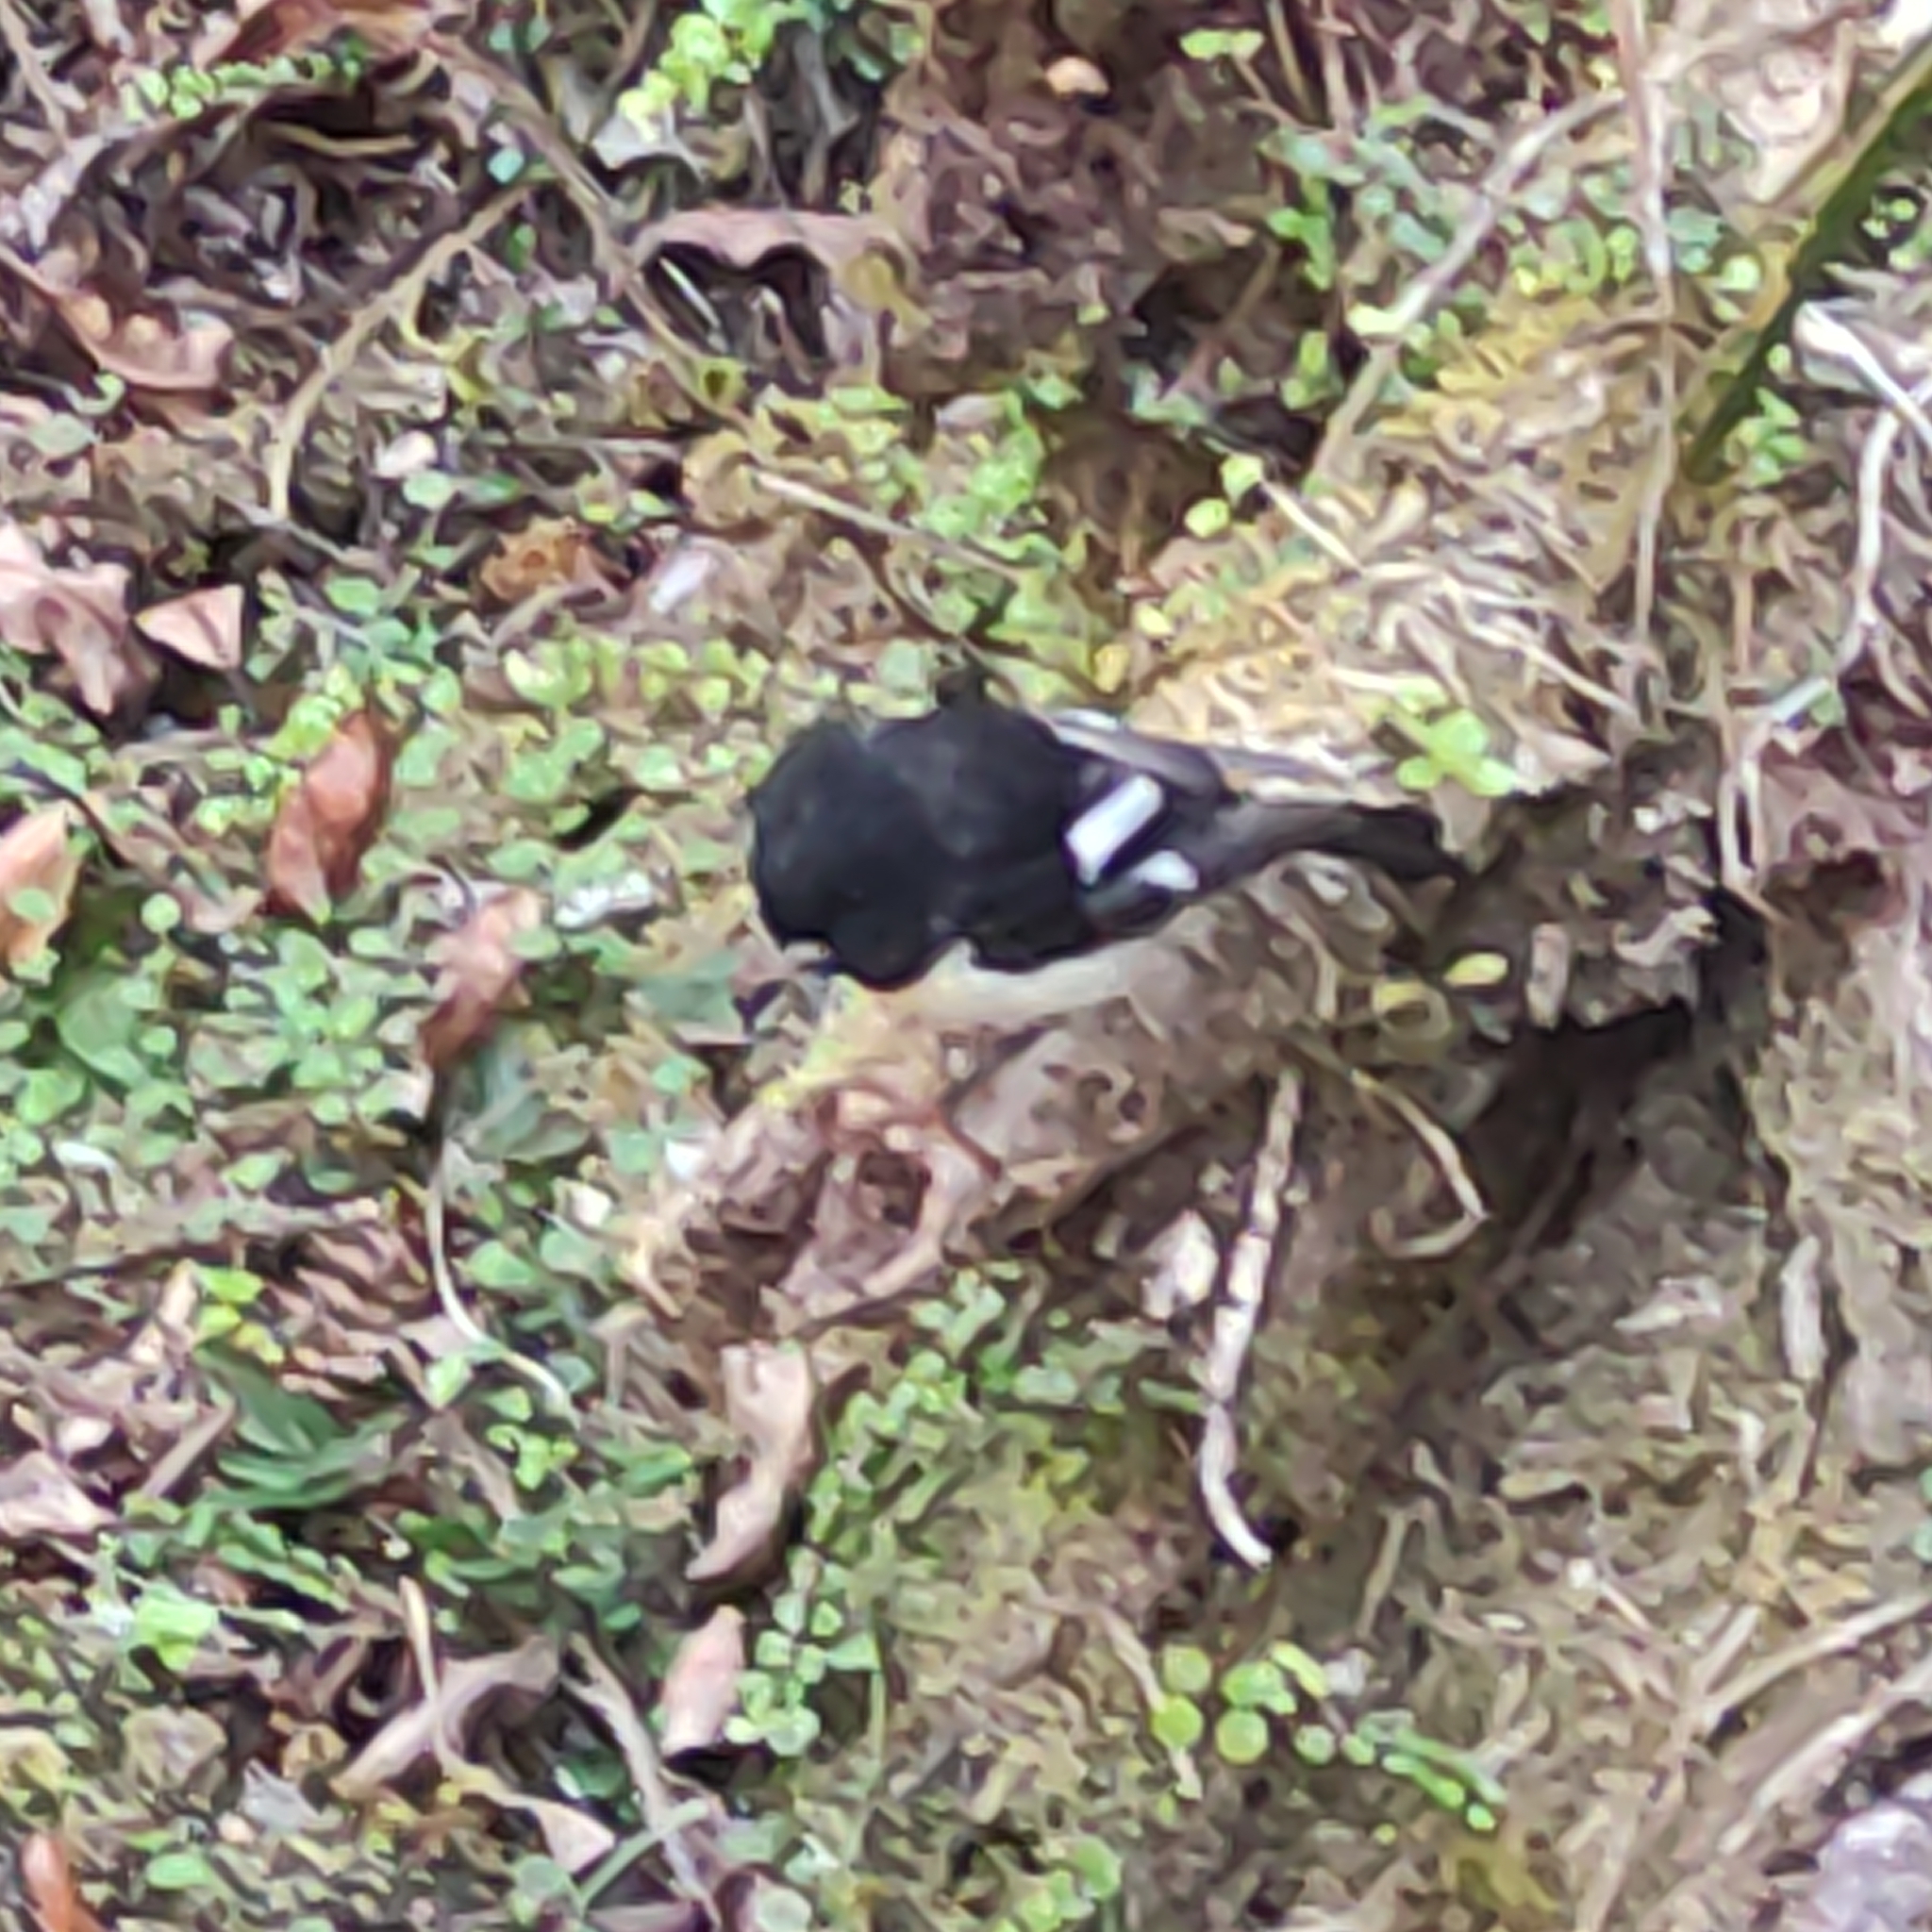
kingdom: Animalia
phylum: Chordata
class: Aves
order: Passeriformes
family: Petroicidae
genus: Petroica
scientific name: Petroica macrocephala
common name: Tomtit
